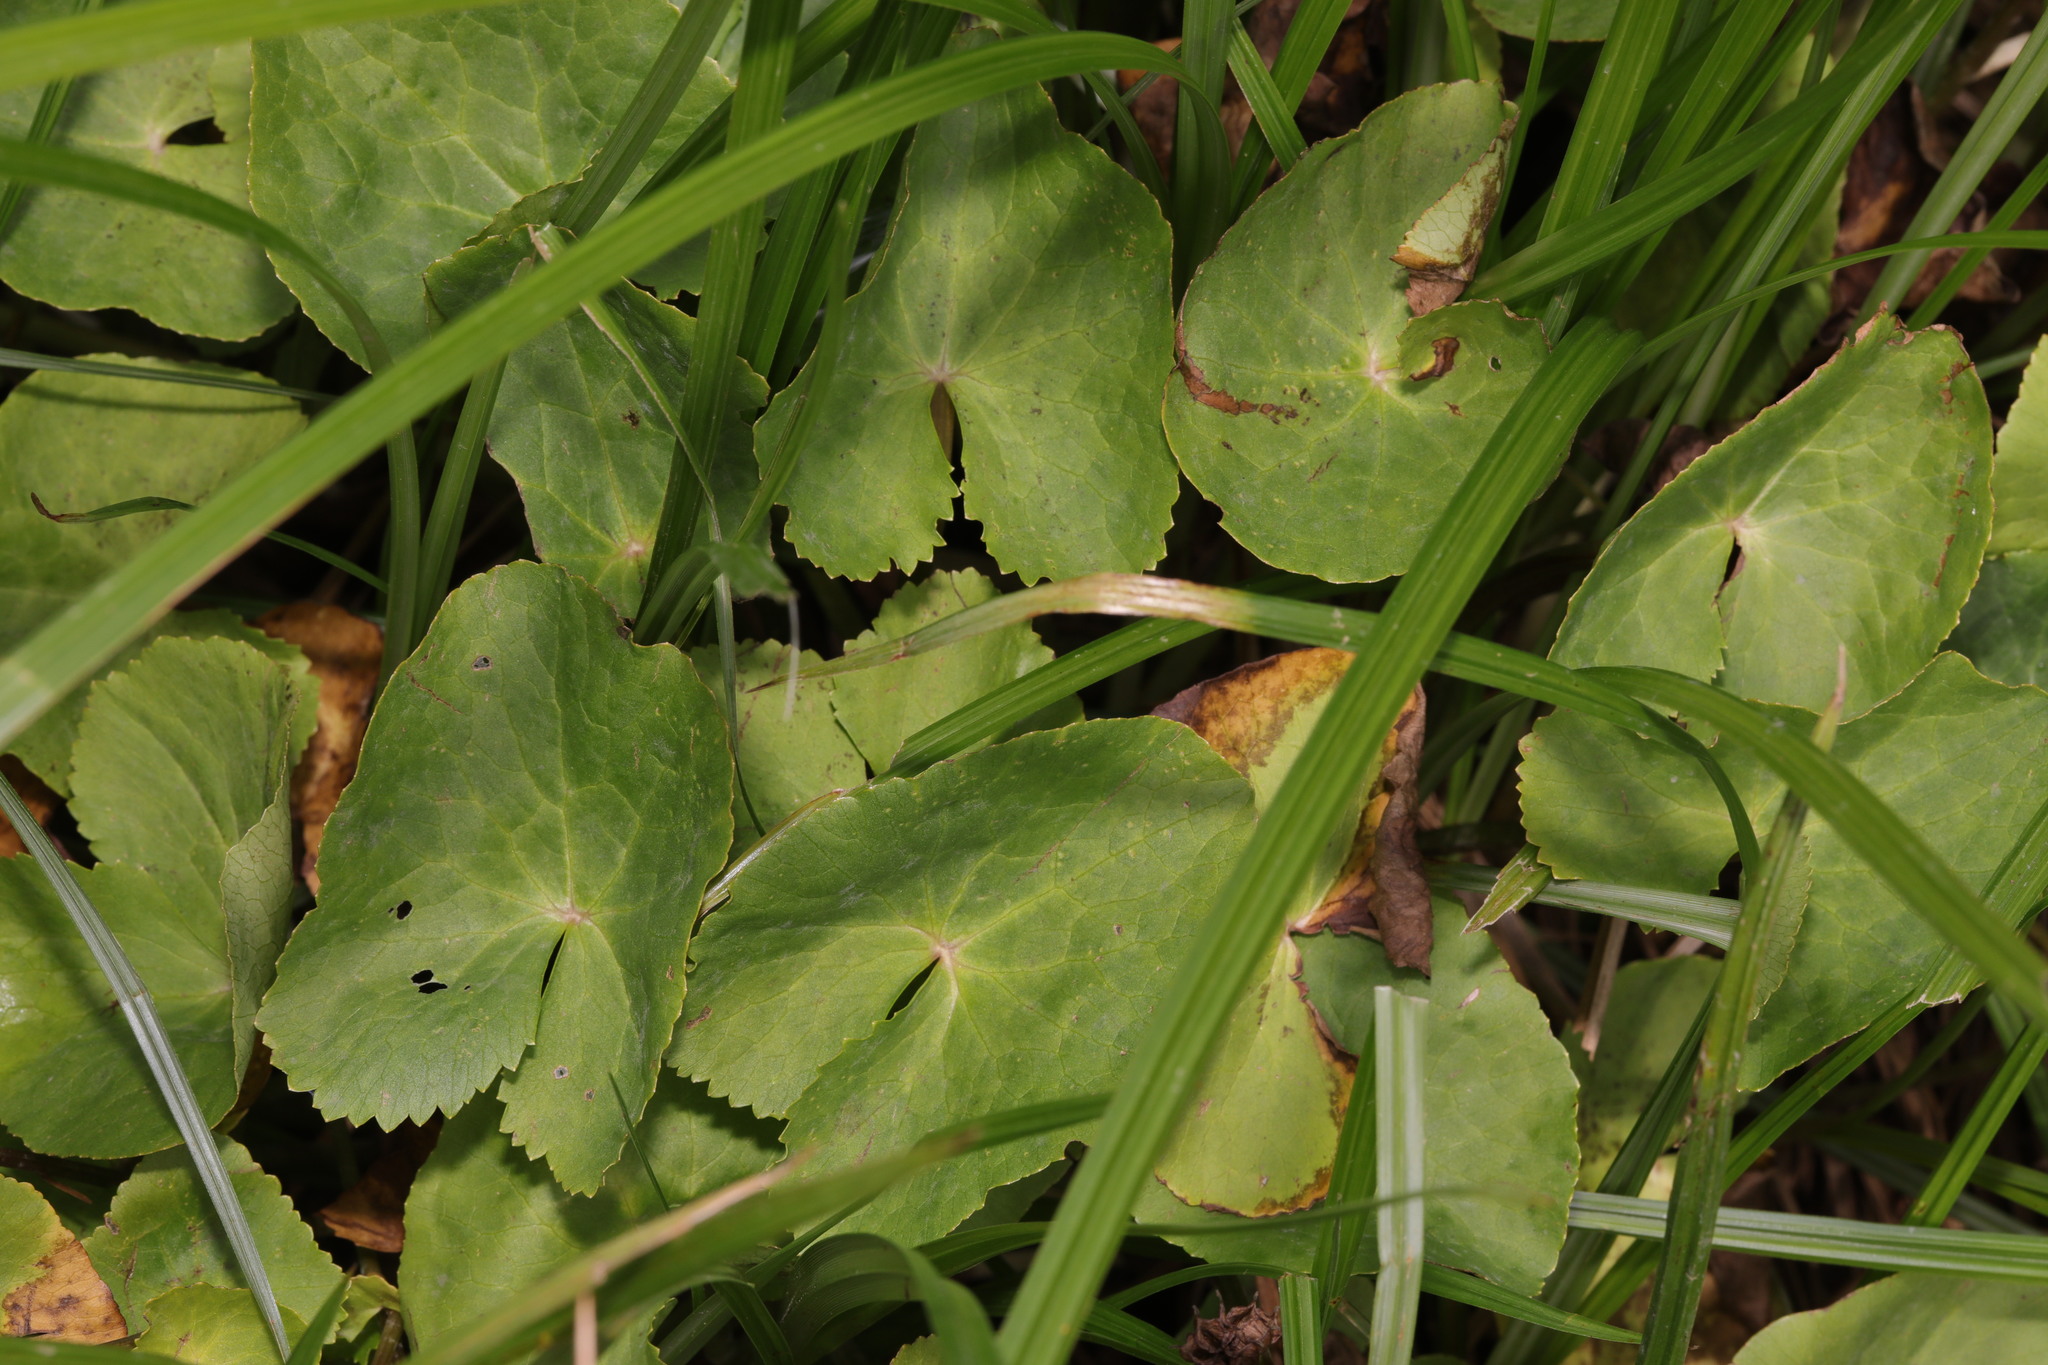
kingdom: Plantae
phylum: Tracheophyta
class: Magnoliopsida
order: Ranunculales
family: Ranunculaceae
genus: Caltha
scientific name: Caltha palustris
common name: Marsh marigold
